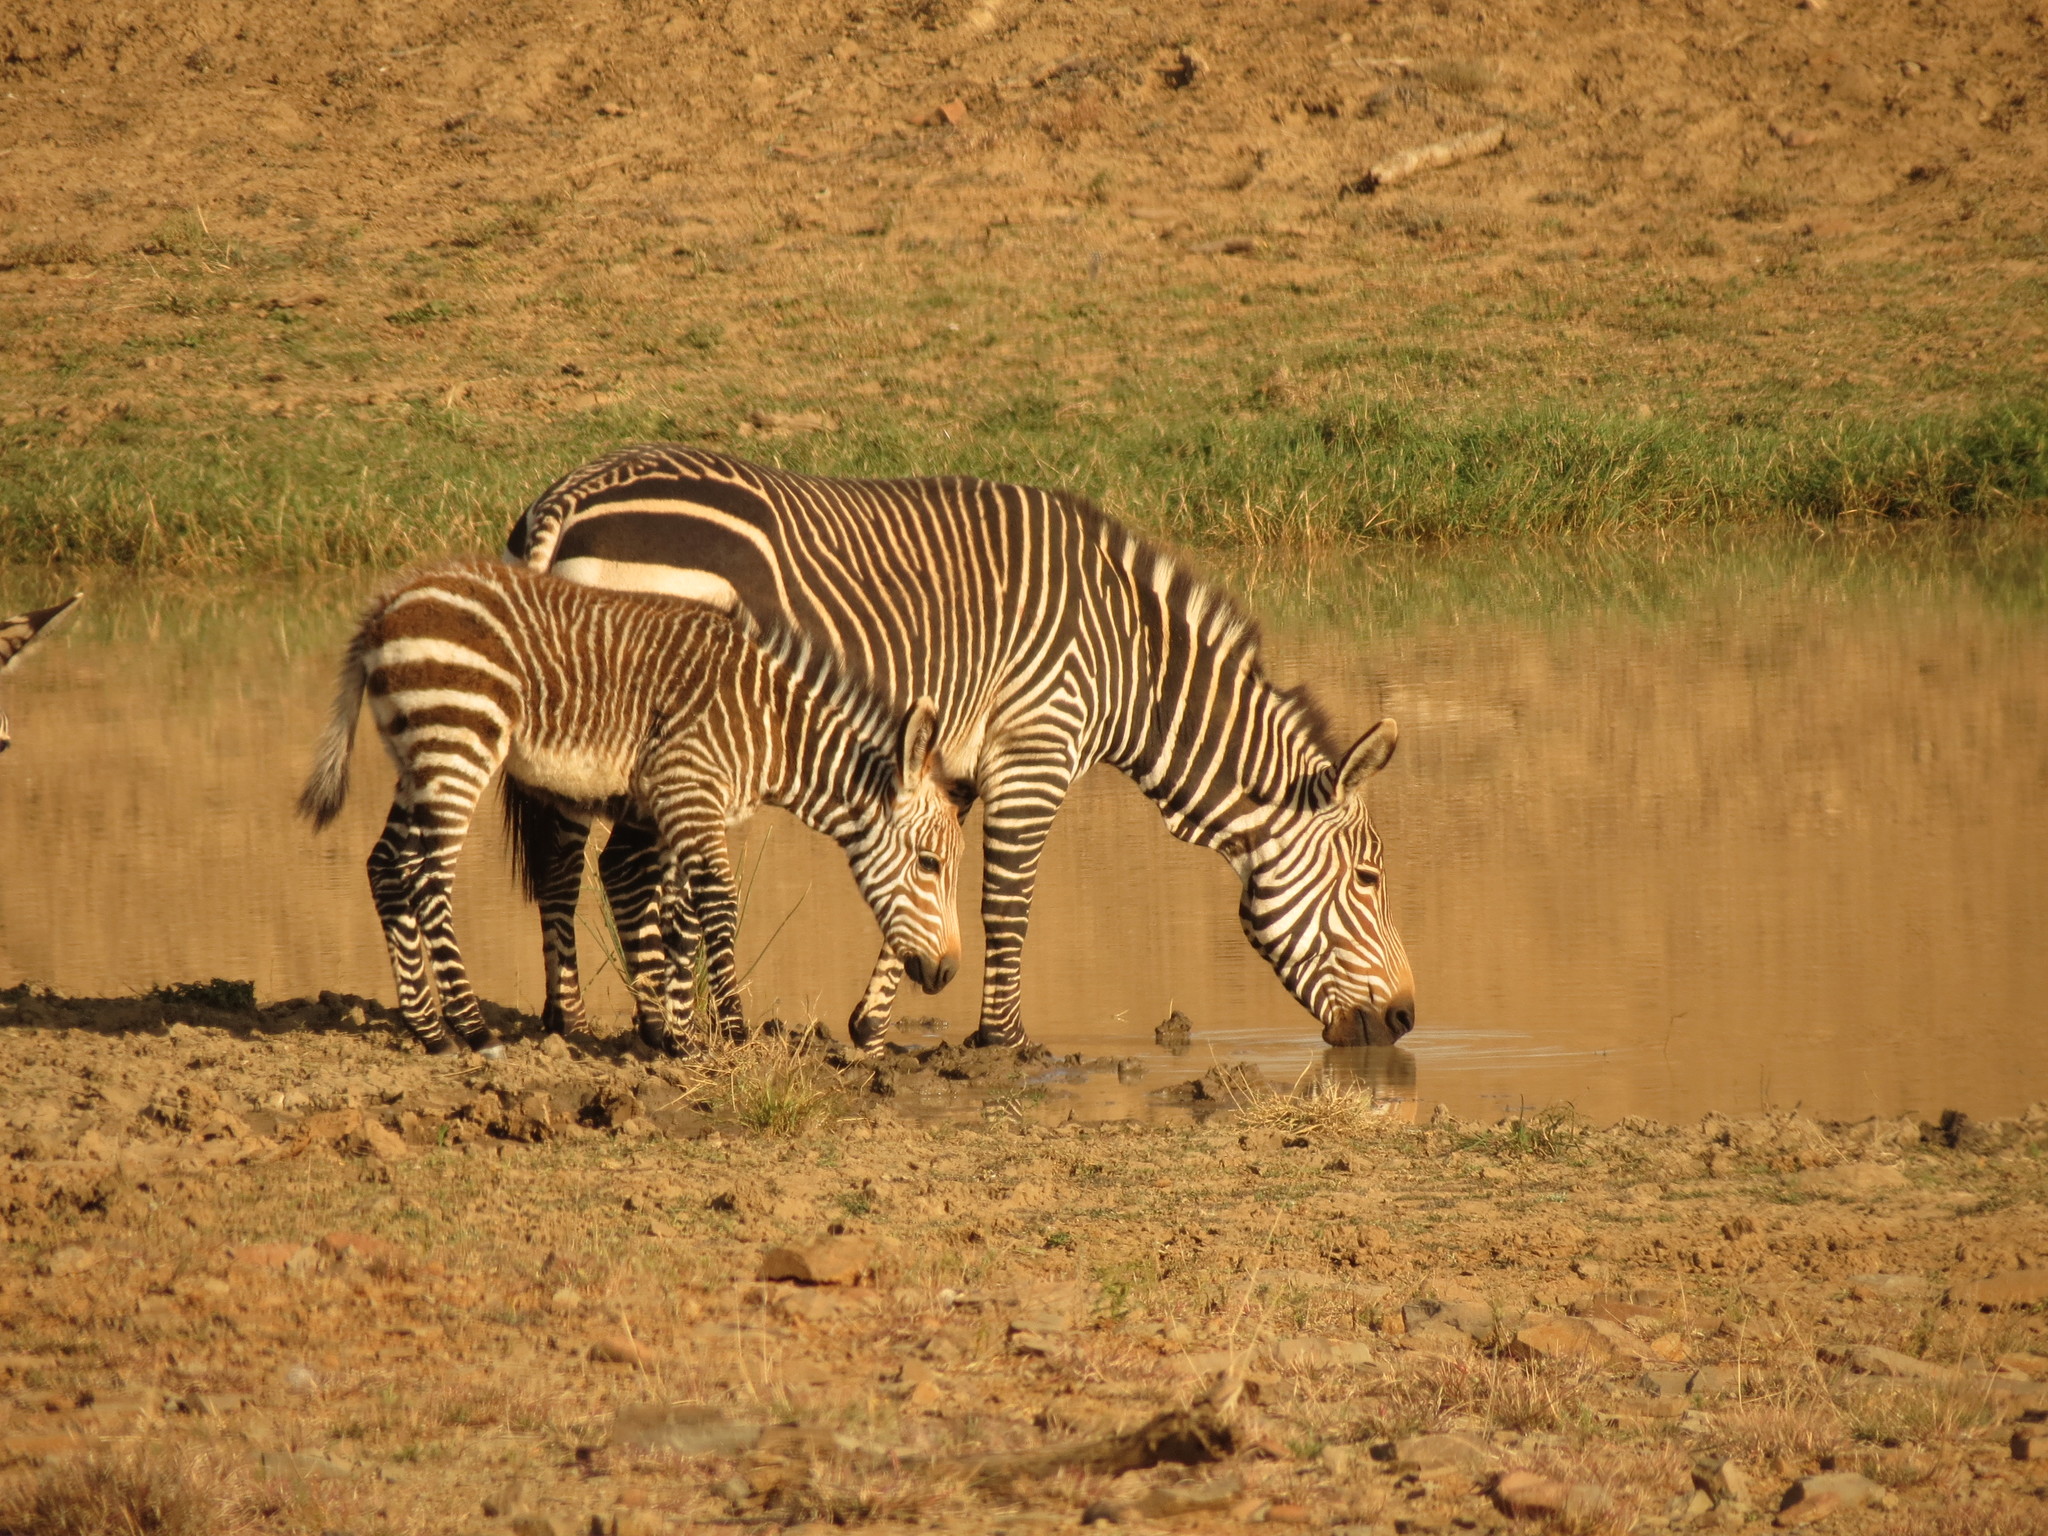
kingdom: Animalia
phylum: Chordata
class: Mammalia
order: Perissodactyla
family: Equidae
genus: Equus
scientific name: Equus zebra
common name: Mountain zebra
